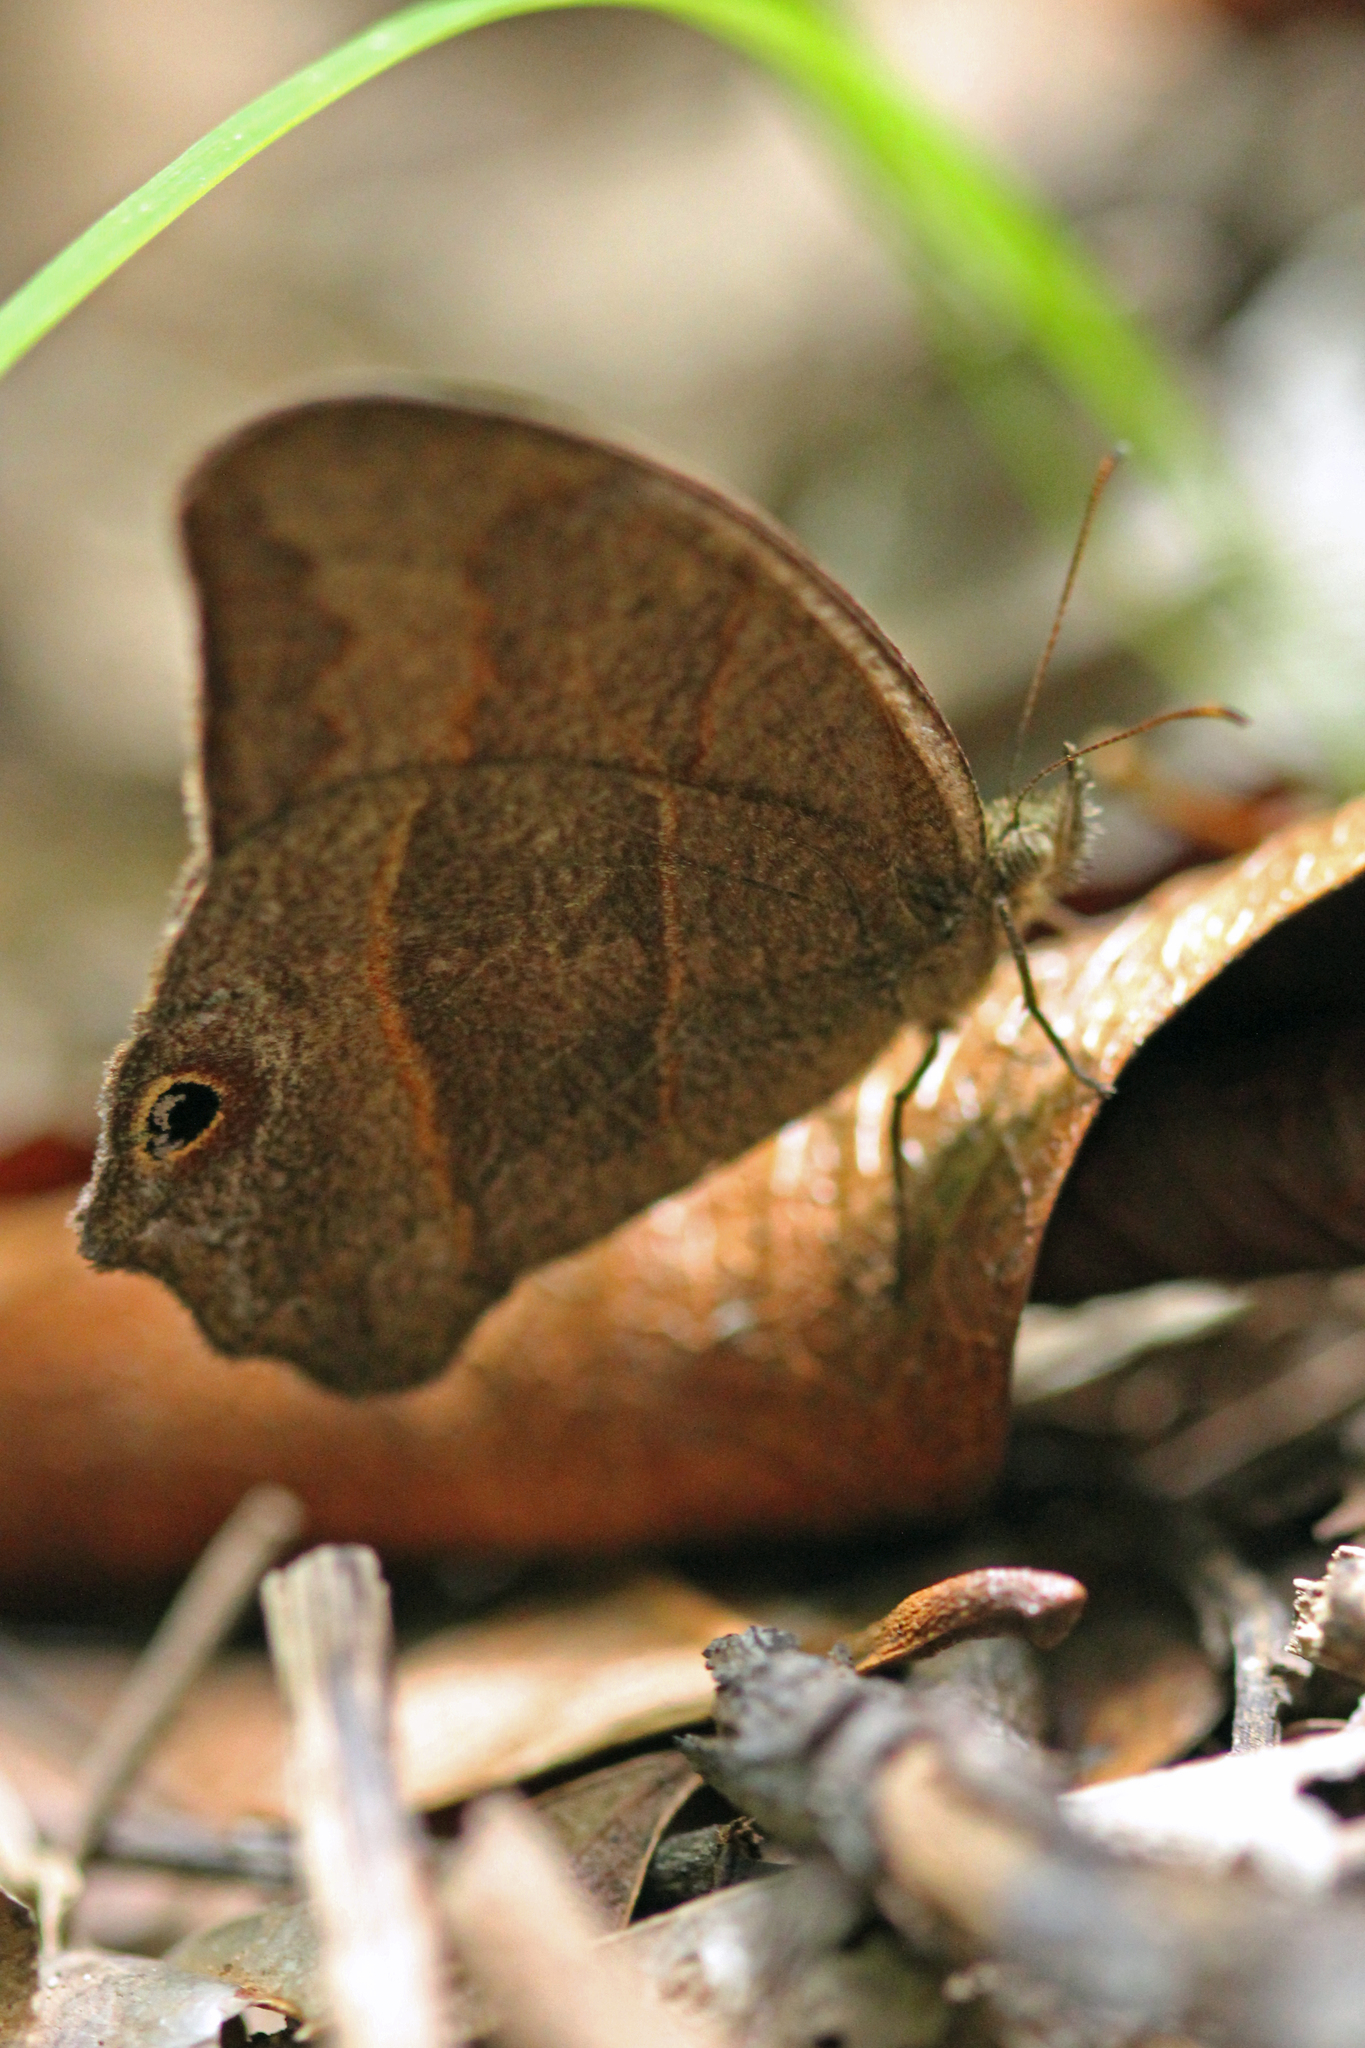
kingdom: Animalia
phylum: Arthropoda
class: Insecta
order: Lepidoptera
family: Nymphalidae
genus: Euptychia
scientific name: Euptychia Cyllopsis hedemanni
